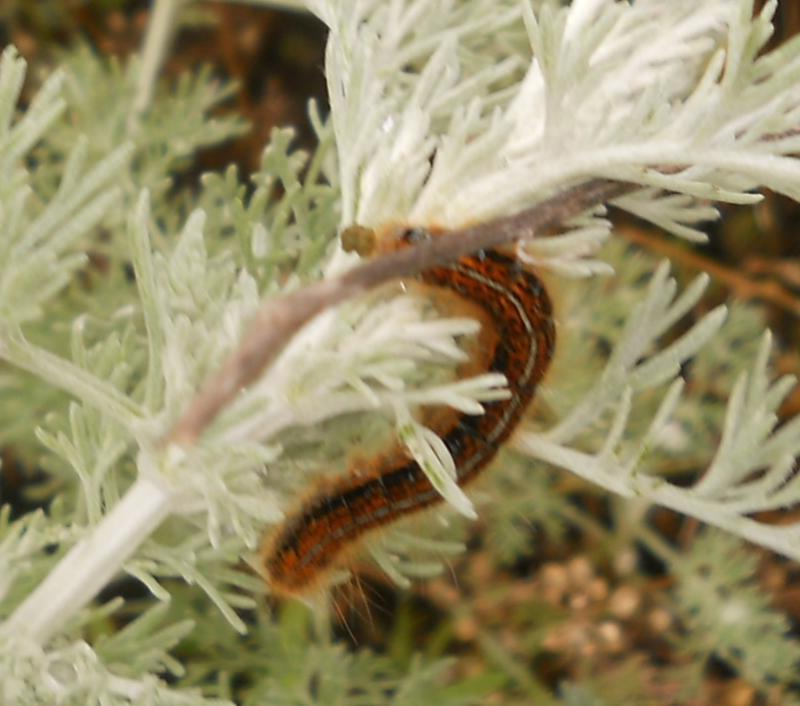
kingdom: Animalia
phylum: Arthropoda
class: Insecta
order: Lepidoptera
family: Lasiocampidae
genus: Malacosoma
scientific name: Malacosoma castrense
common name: Ground lackey
